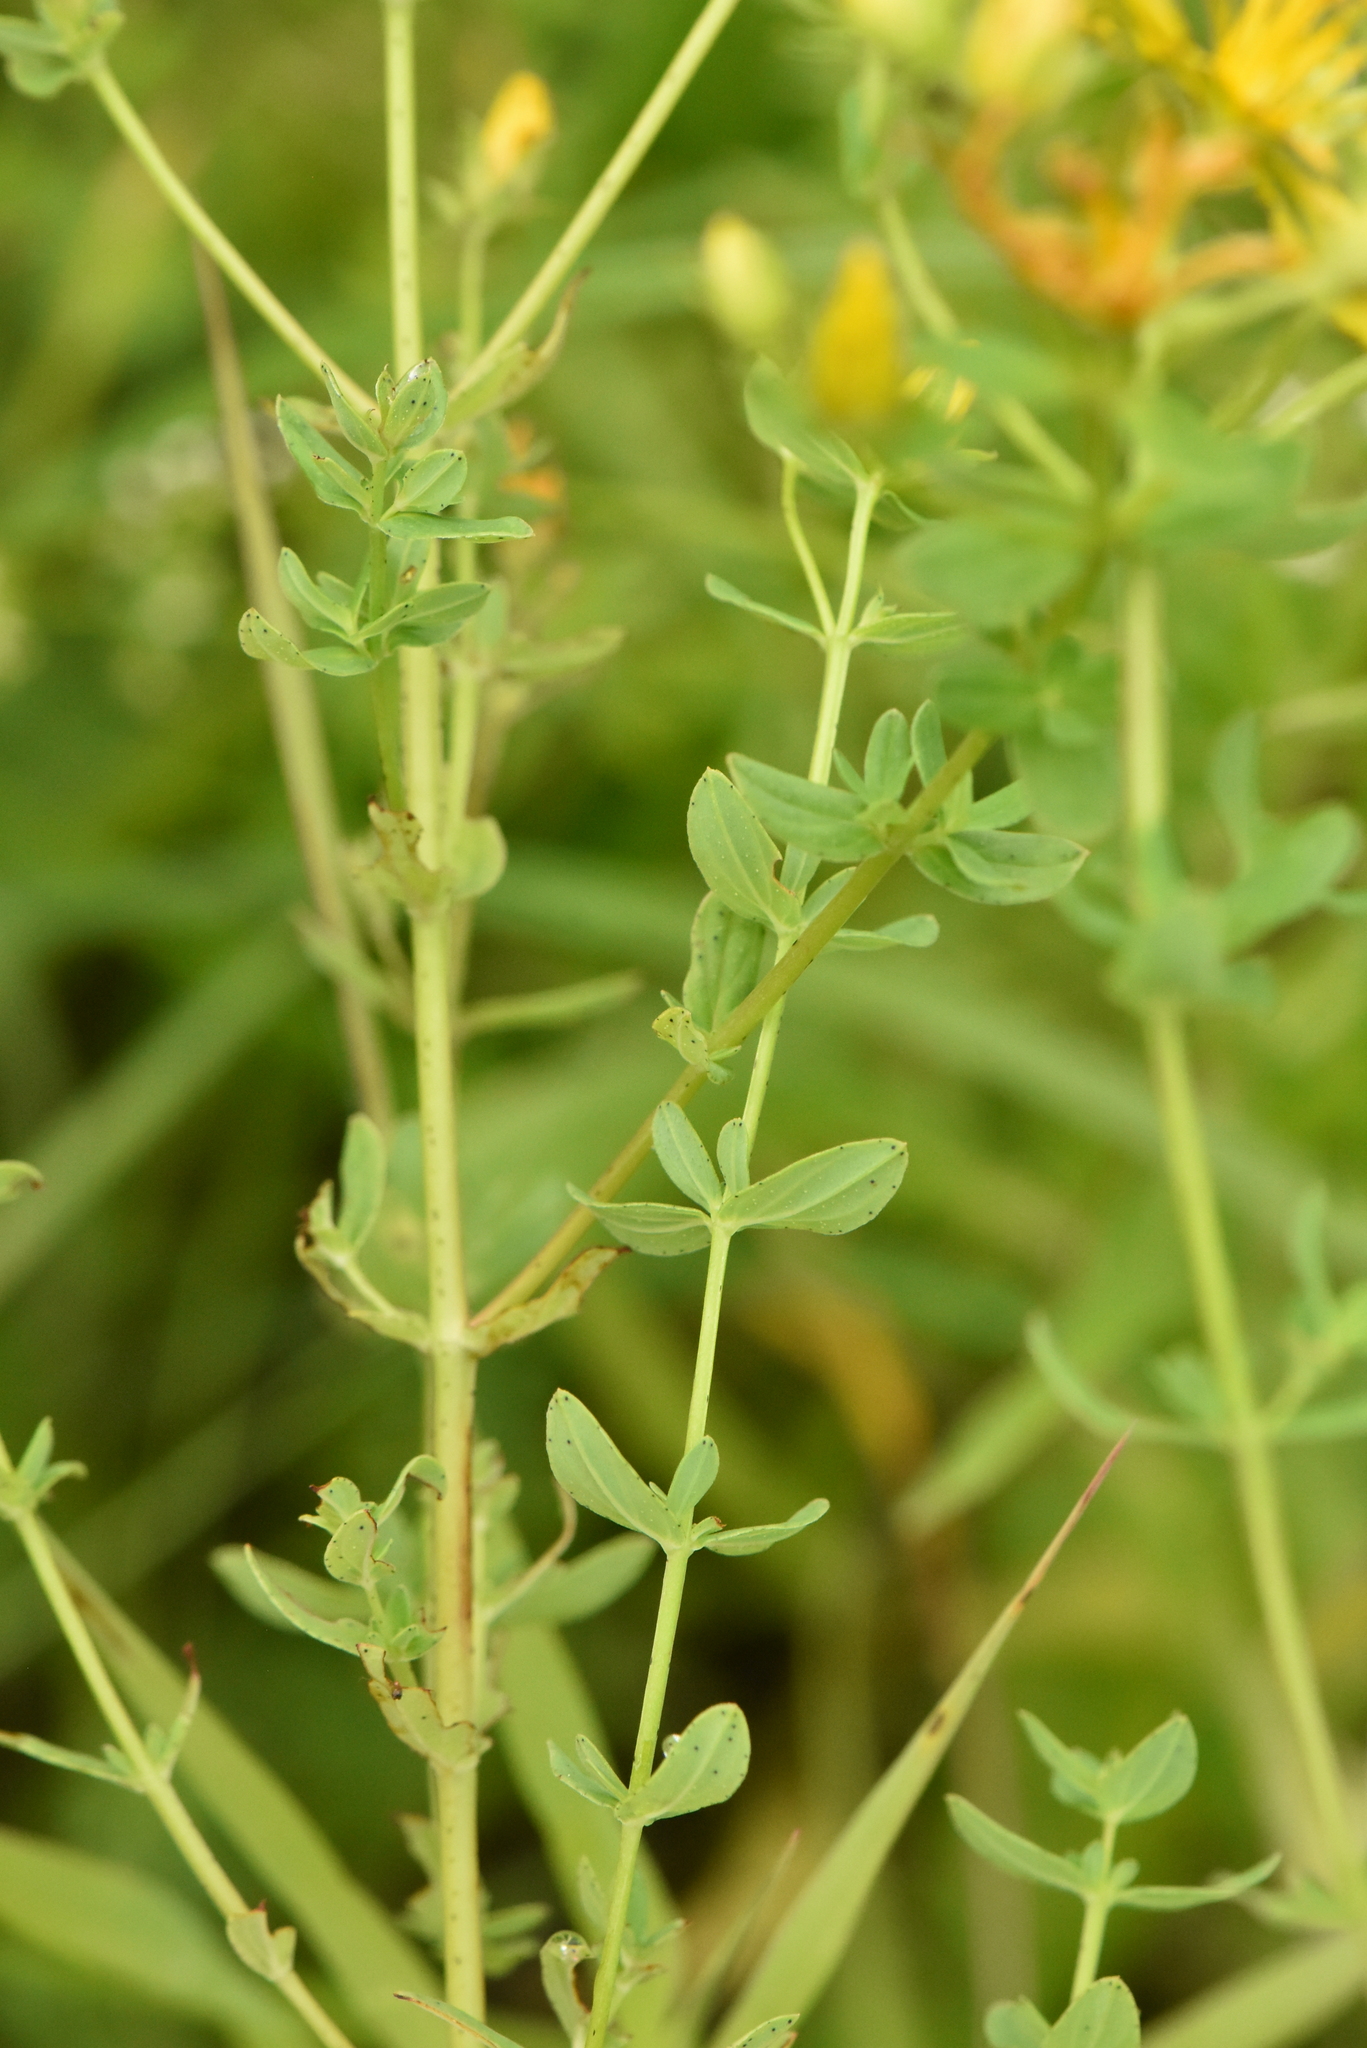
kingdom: Plantae
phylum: Tracheophyta
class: Magnoliopsida
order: Malpighiales
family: Hypericaceae
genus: Hypericum
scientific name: Hypericum perforatum
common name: Common st. johnswort
